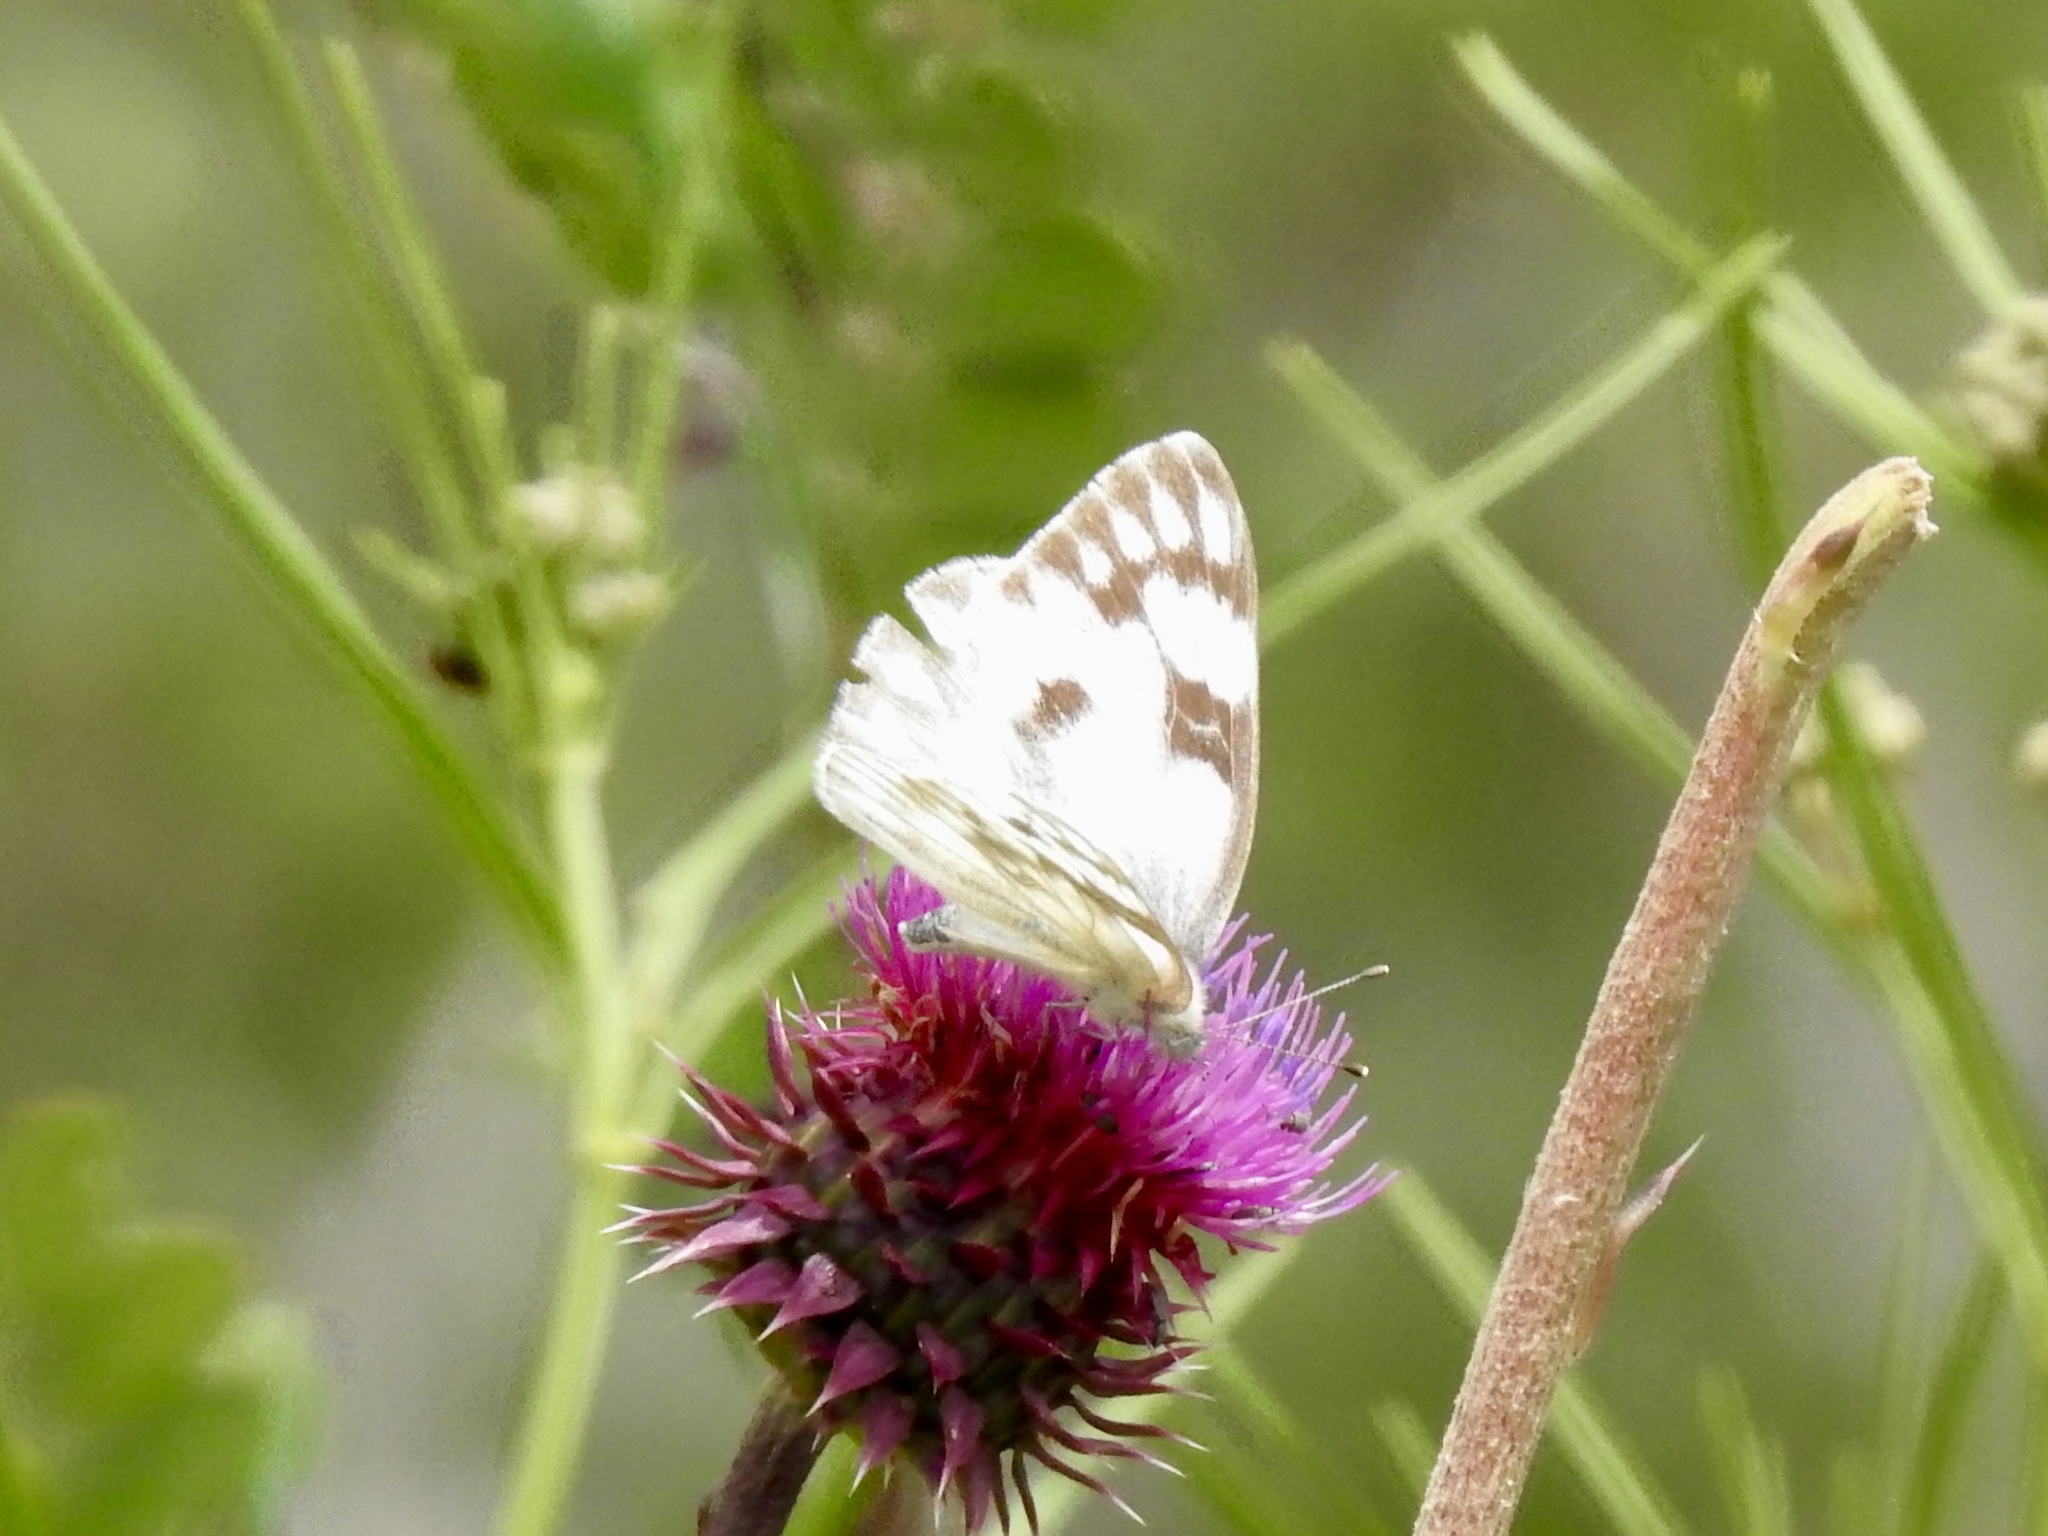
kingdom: Animalia
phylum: Arthropoda
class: Insecta
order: Lepidoptera
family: Pieridae
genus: Pontia
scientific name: Pontia protodice
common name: Checkered white
